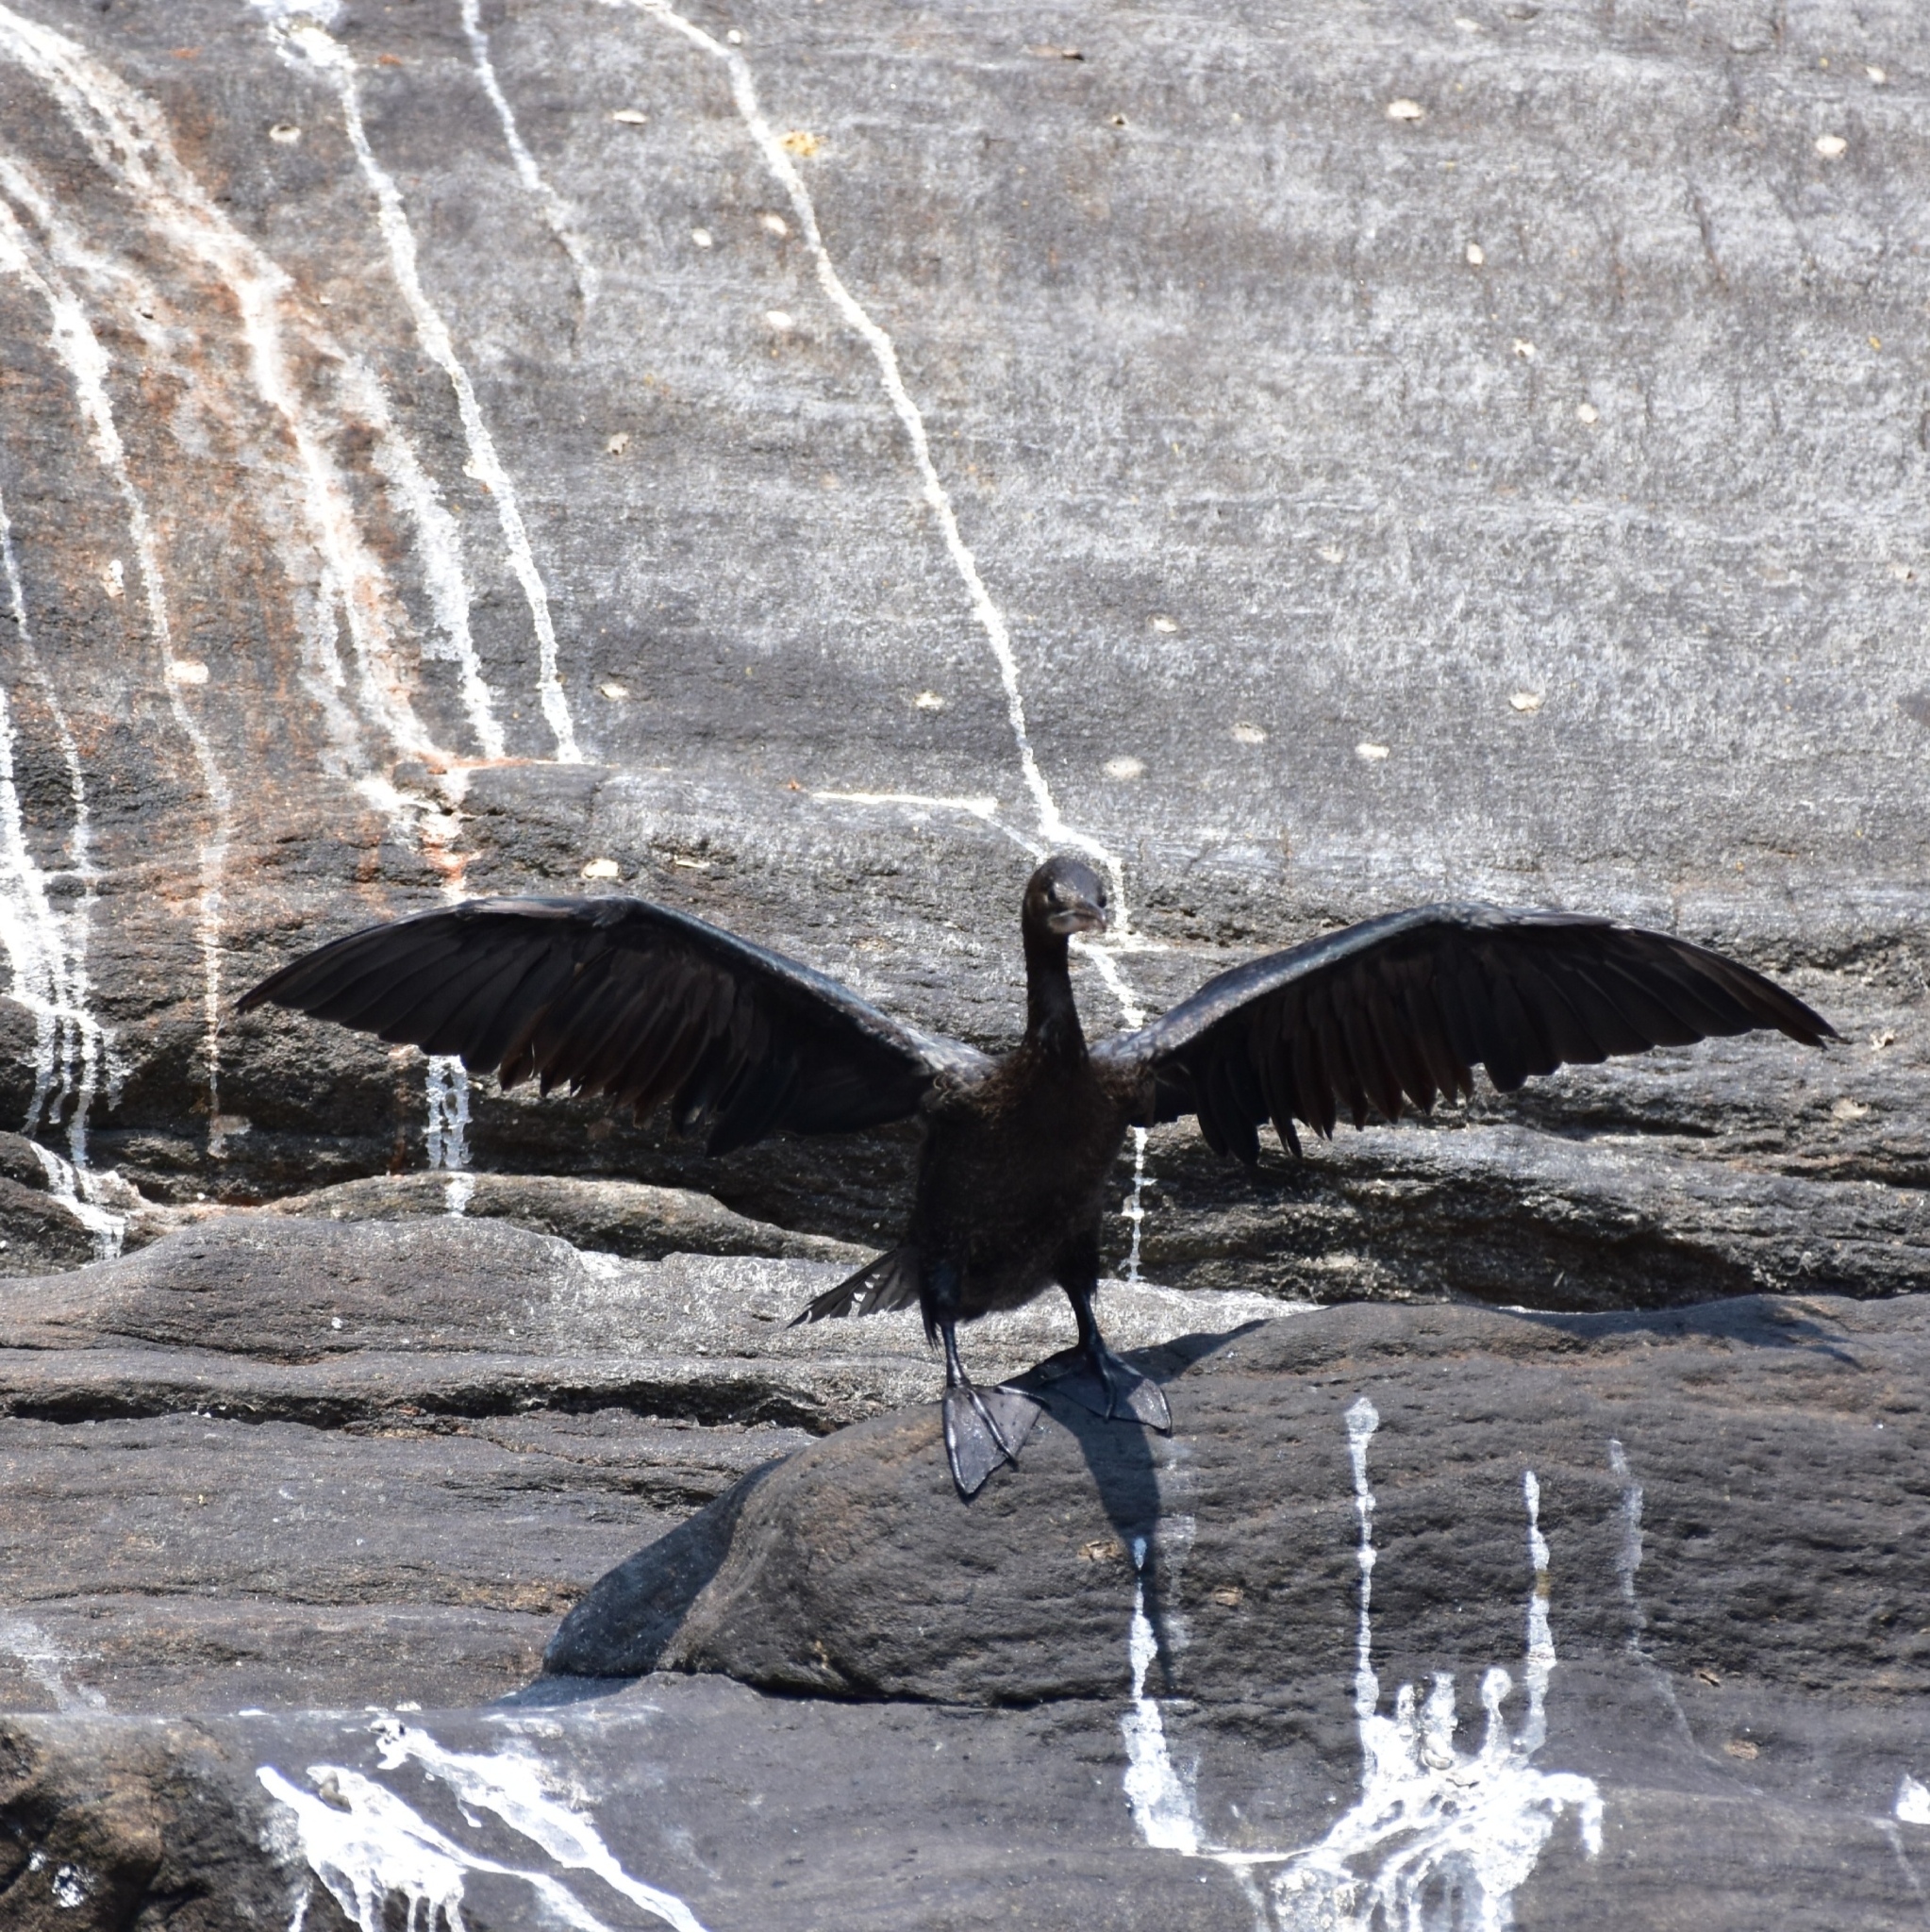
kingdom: Animalia
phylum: Chordata
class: Aves
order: Suliformes
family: Phalacrocoracidae
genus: Microcarbo
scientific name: Microcarbo niger
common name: Little cormorant
